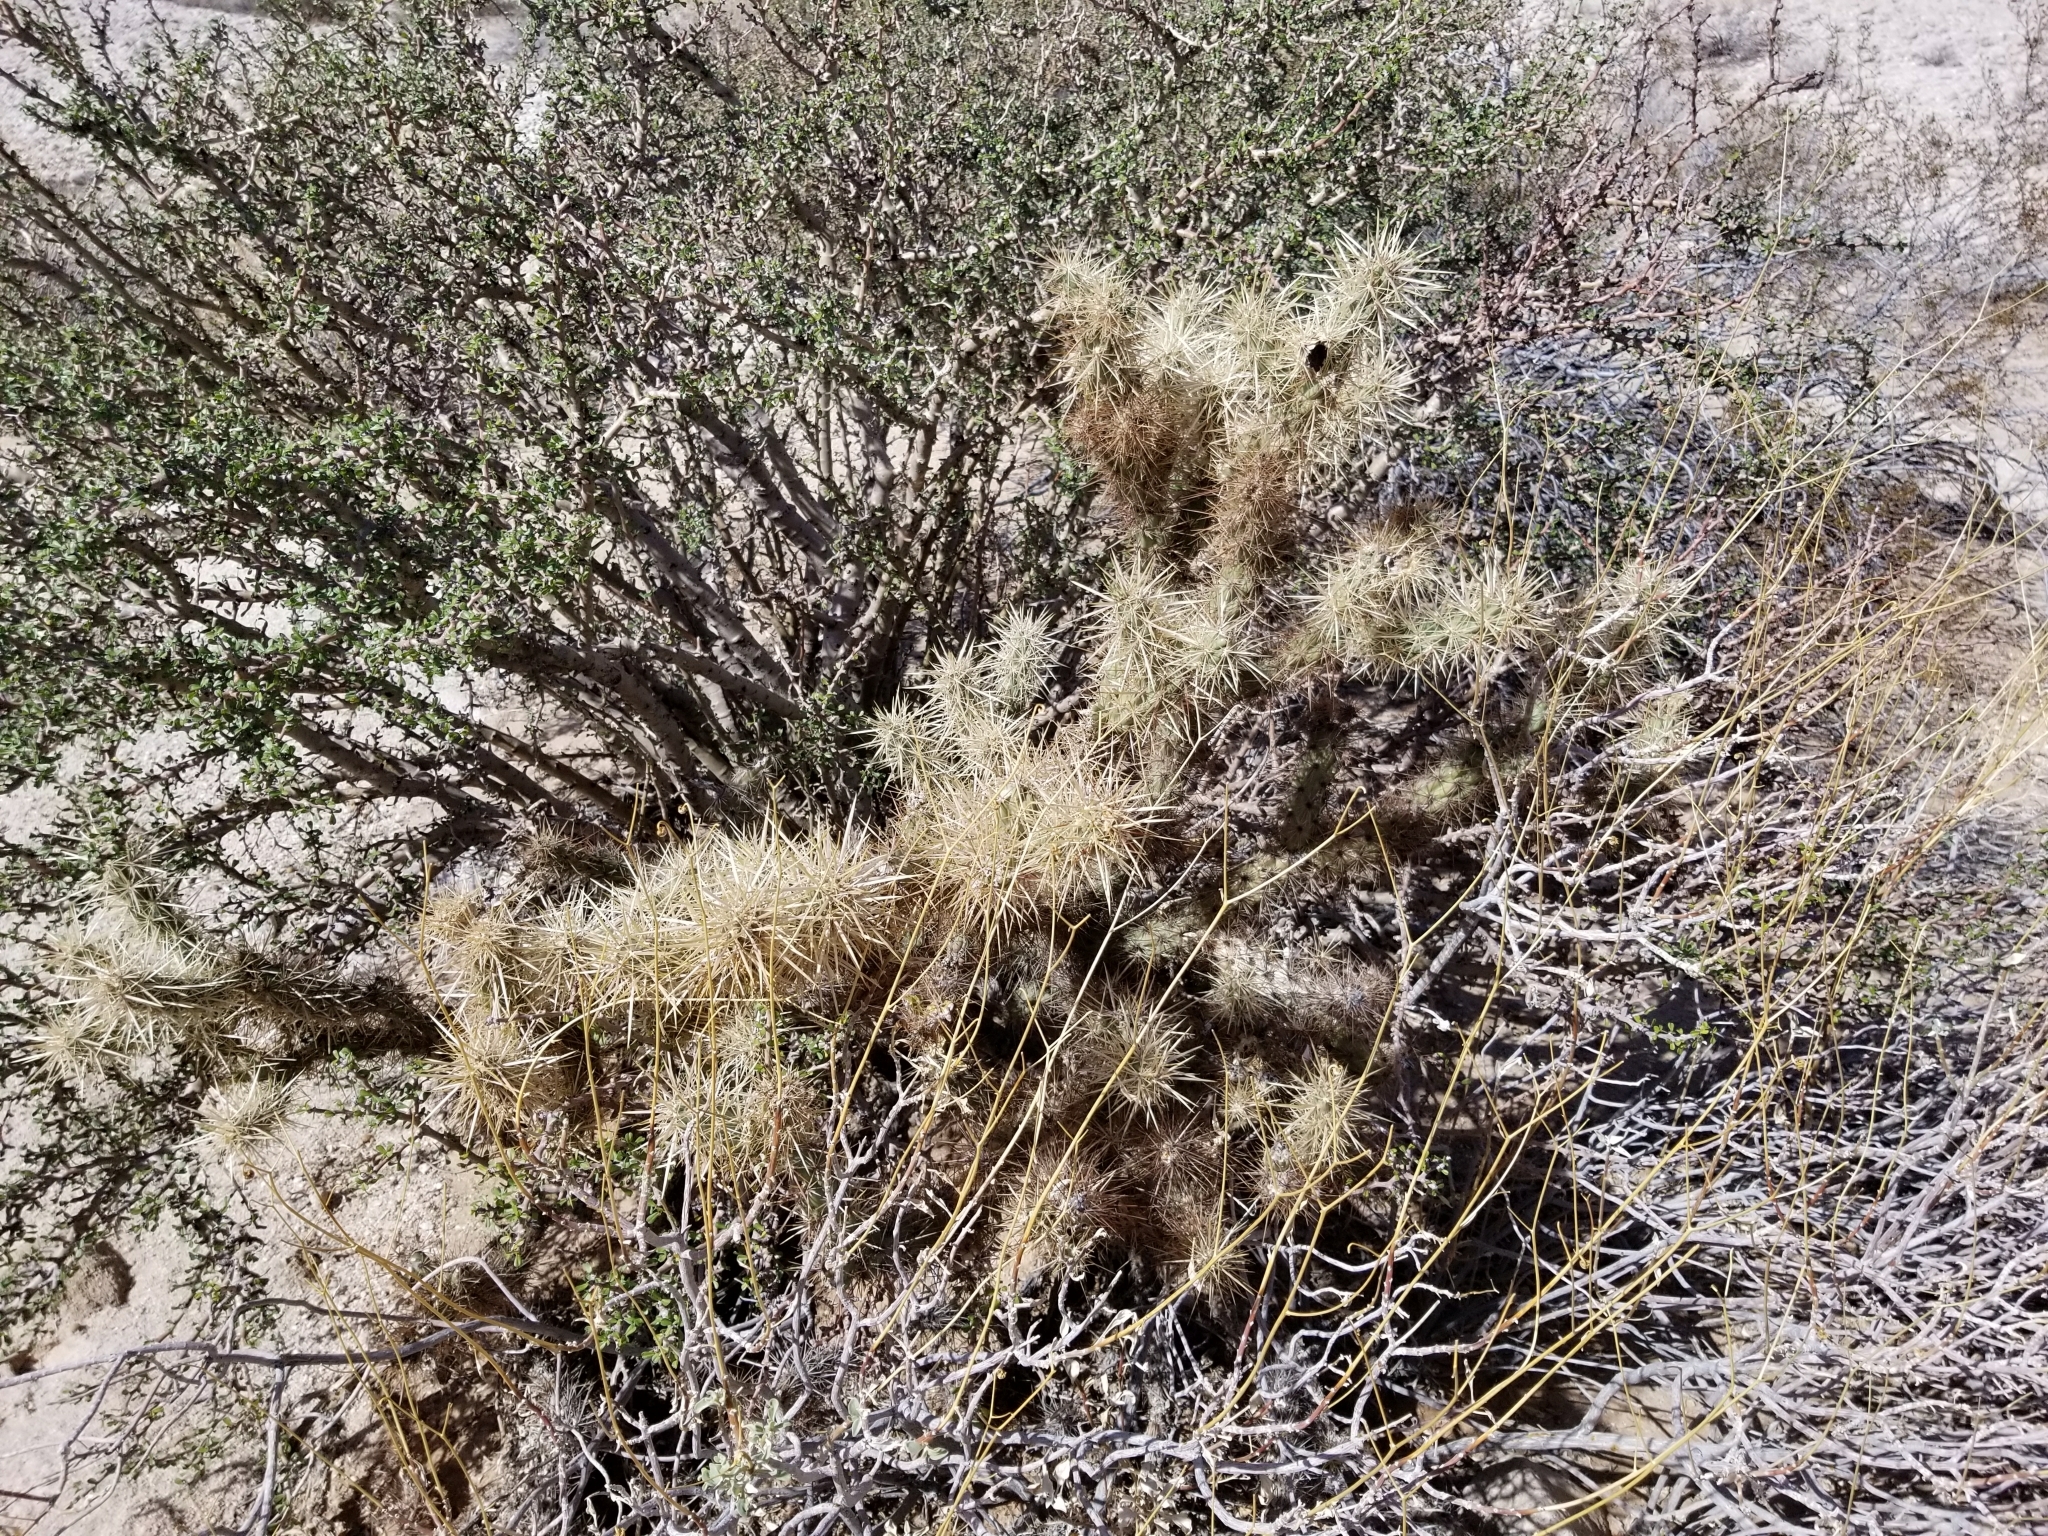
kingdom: Plantae
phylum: Tracheophyta
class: Magnoliopsida
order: Caryophyllales
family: Cactaceae
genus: Cylindropuntia
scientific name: Cylindropuntia echinocarpa
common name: Ground cholla
